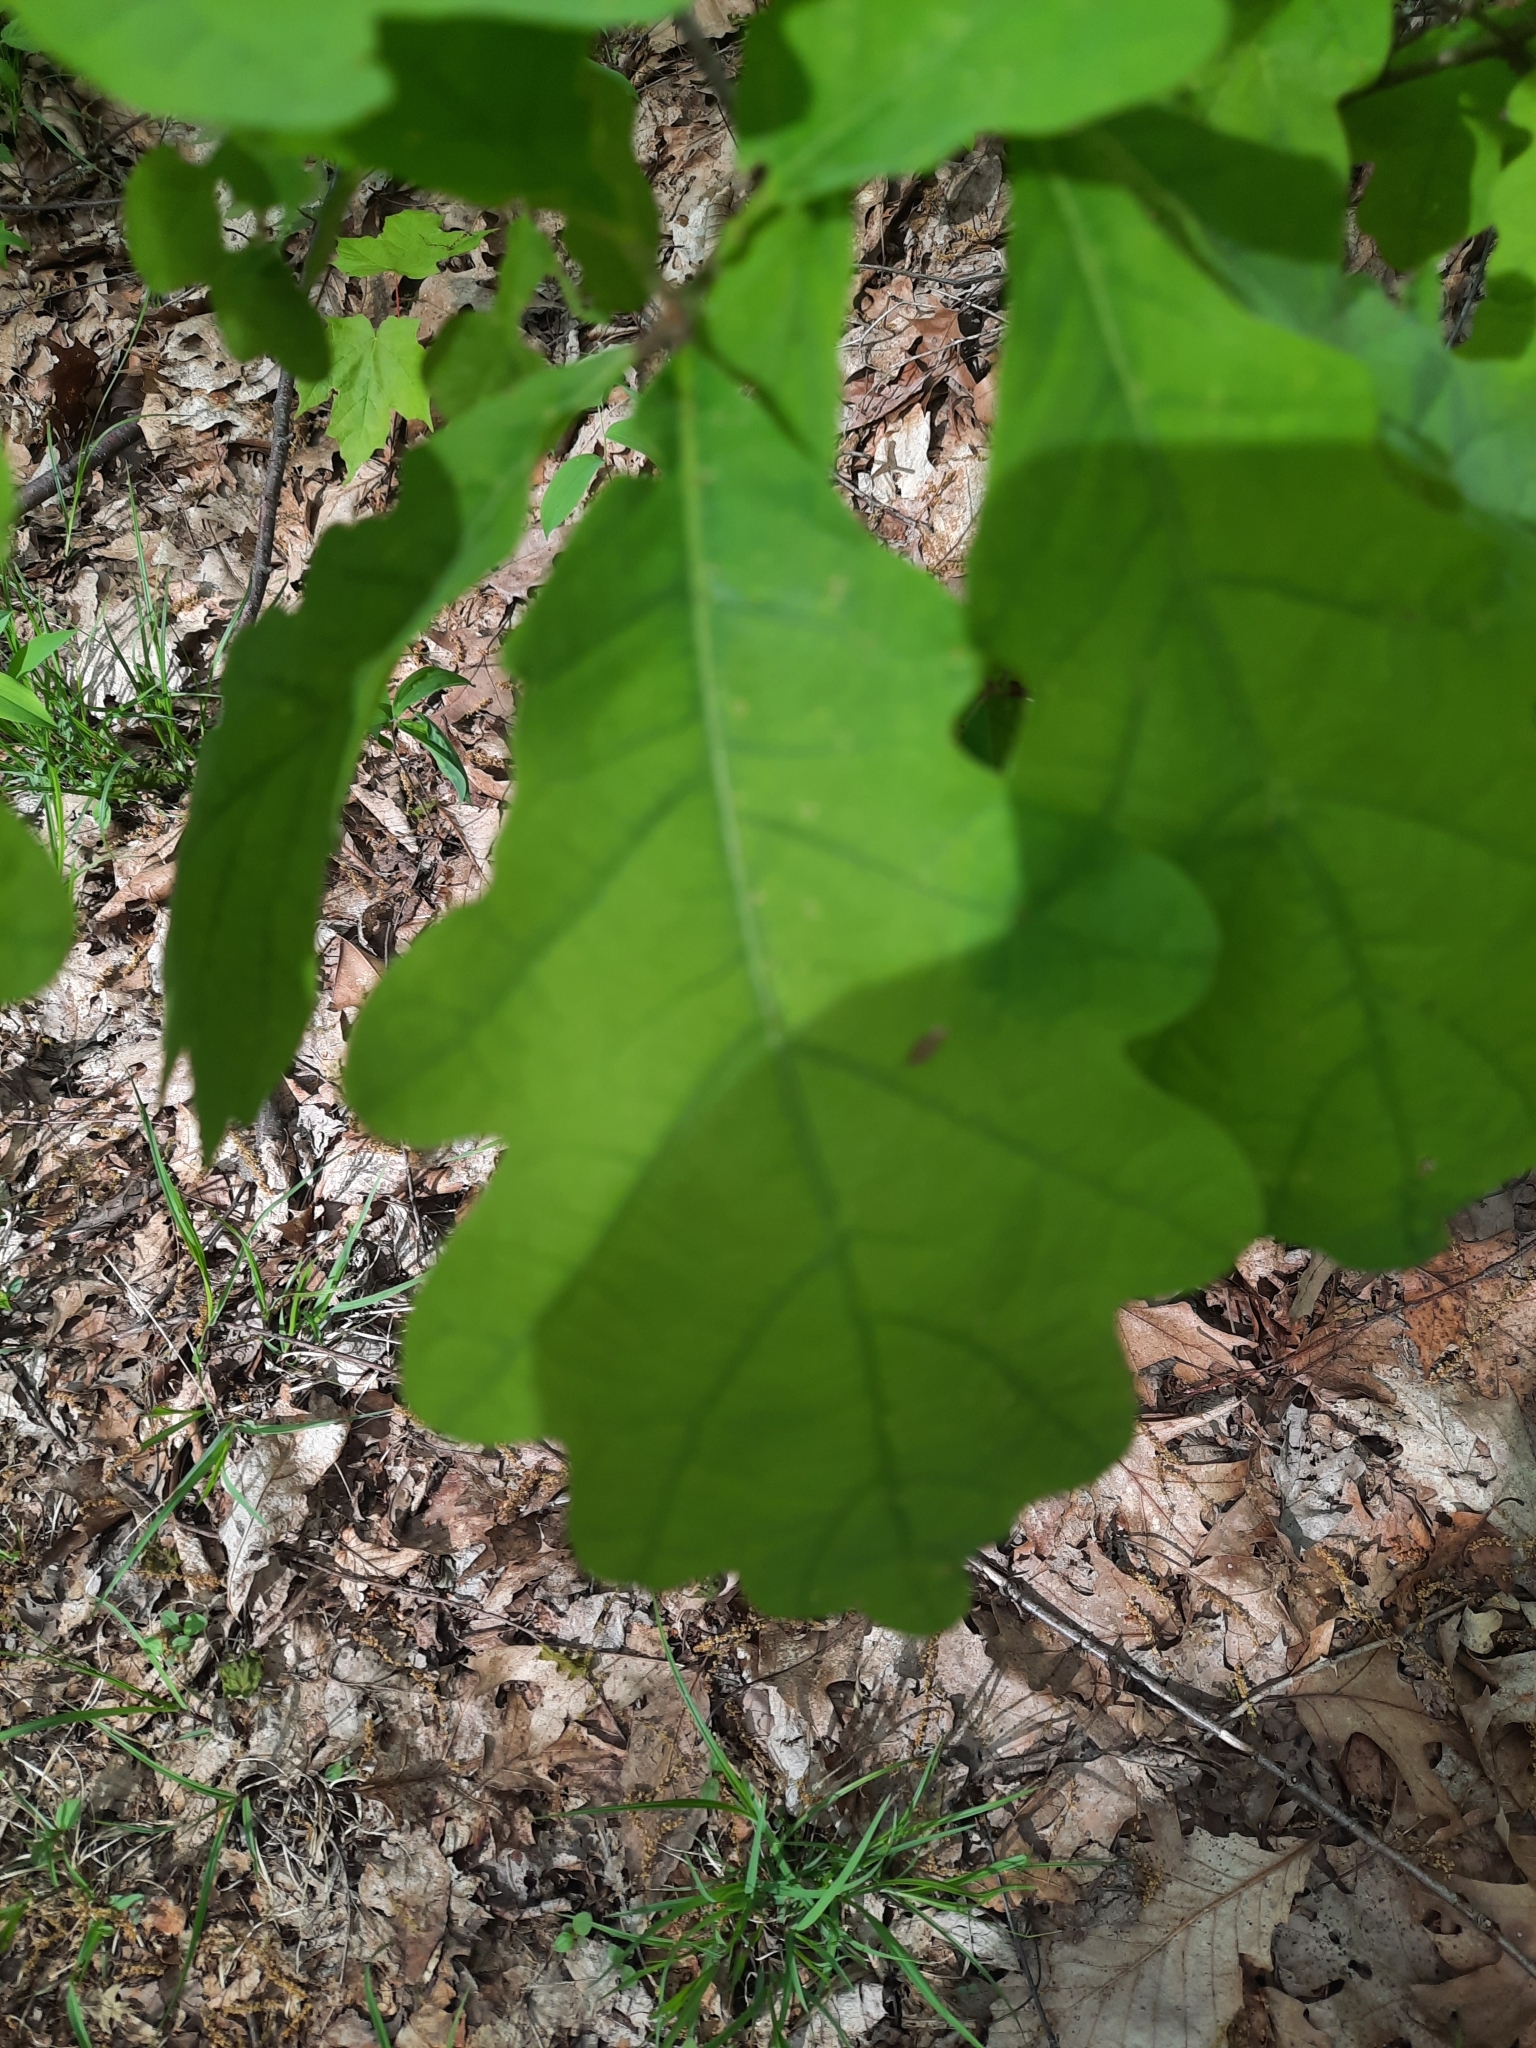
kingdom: Plantae
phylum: Tracheophyta
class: Magnoliopsida
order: Fagales
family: Fagaceae
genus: Quercus
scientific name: Quercus alba
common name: White oak
